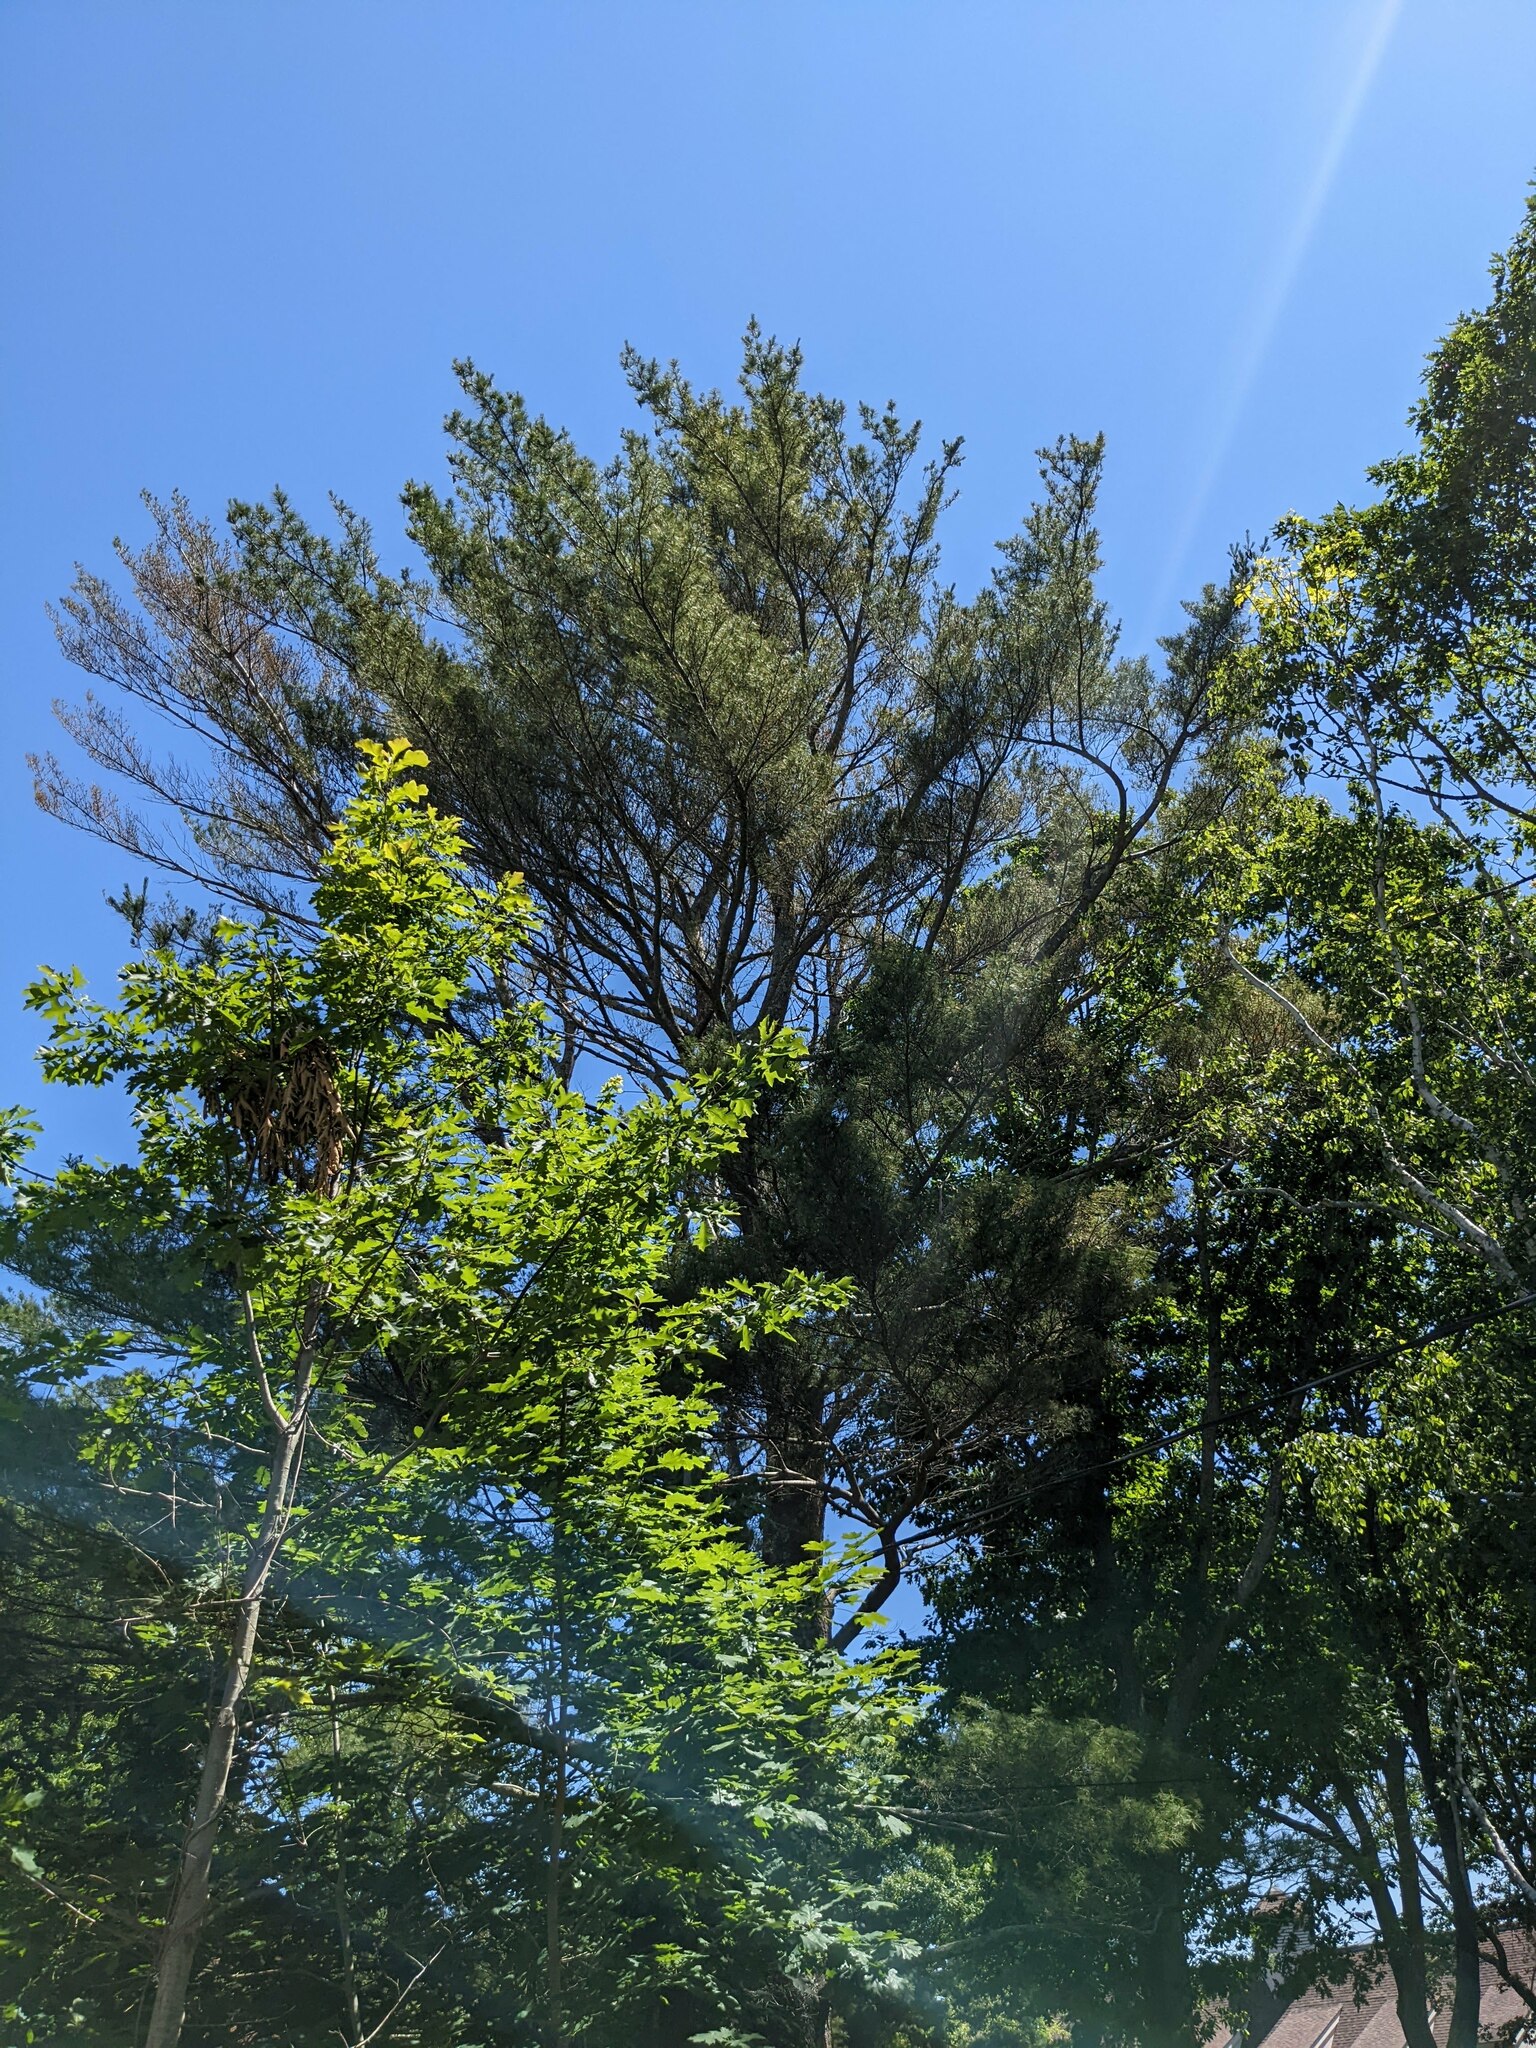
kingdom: Plantae
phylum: Tracheophyta
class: Pinopsida
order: Pinales
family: Pinaceae
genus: Pinus
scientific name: Pinus strobus
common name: Weymouth pine
